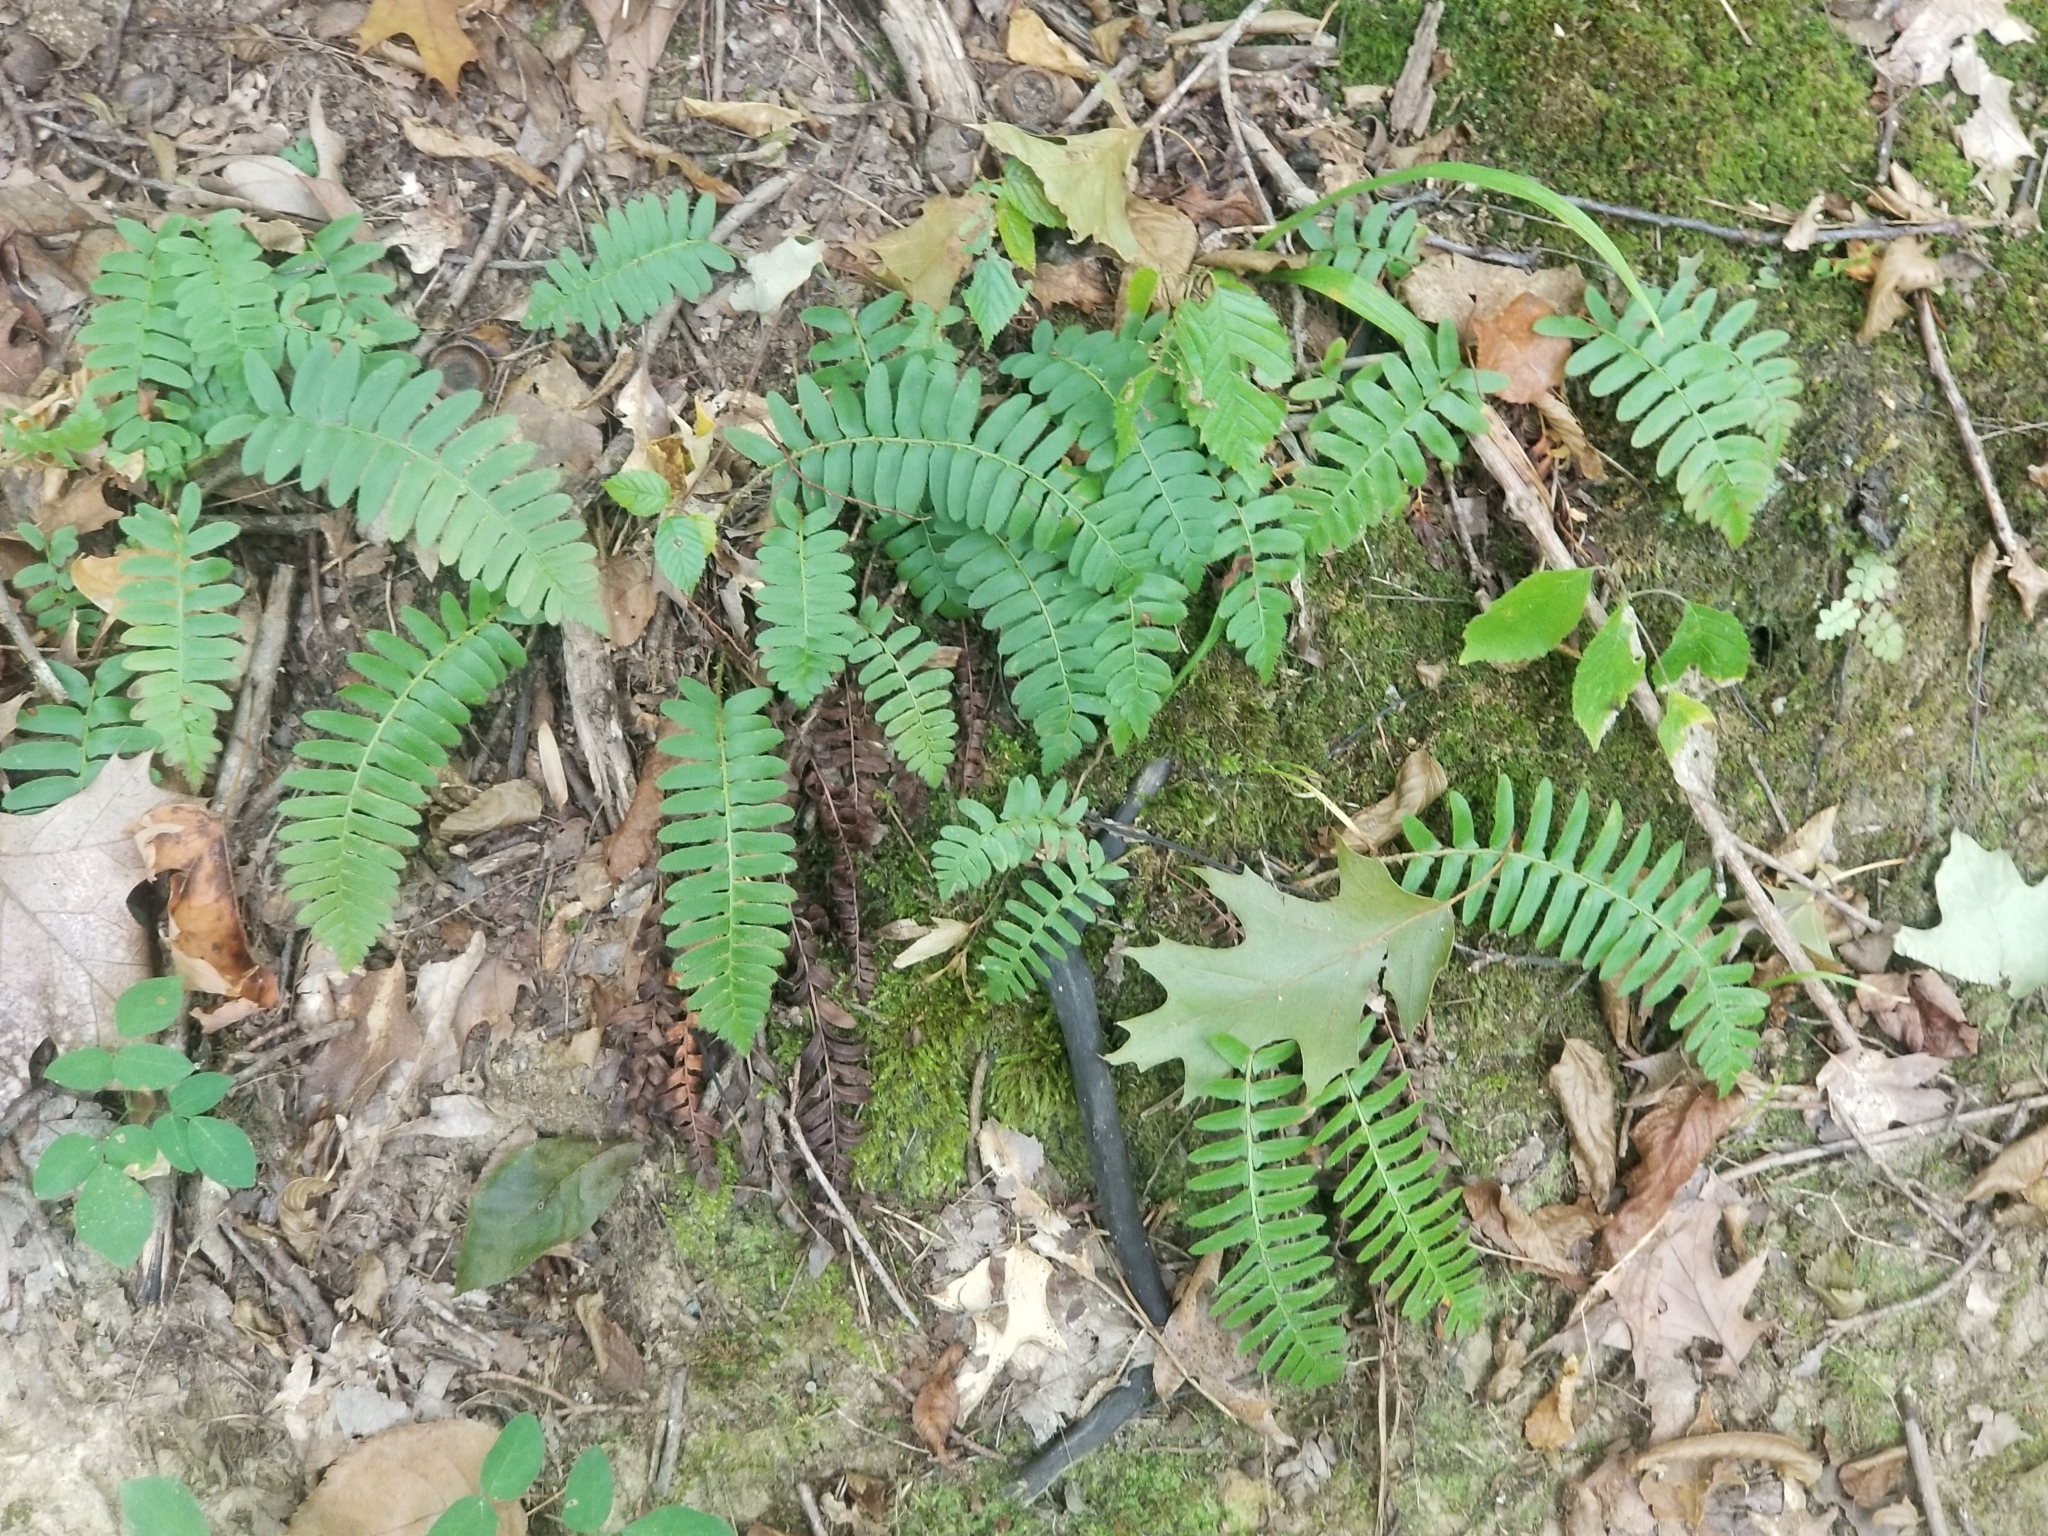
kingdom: Plantae
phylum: Tracheophyta
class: Polypodiopsida
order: Polypodiales
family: Dryopteridaceae
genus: Polystichum
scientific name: Polystichum acrostichoides
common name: Christmas fern
